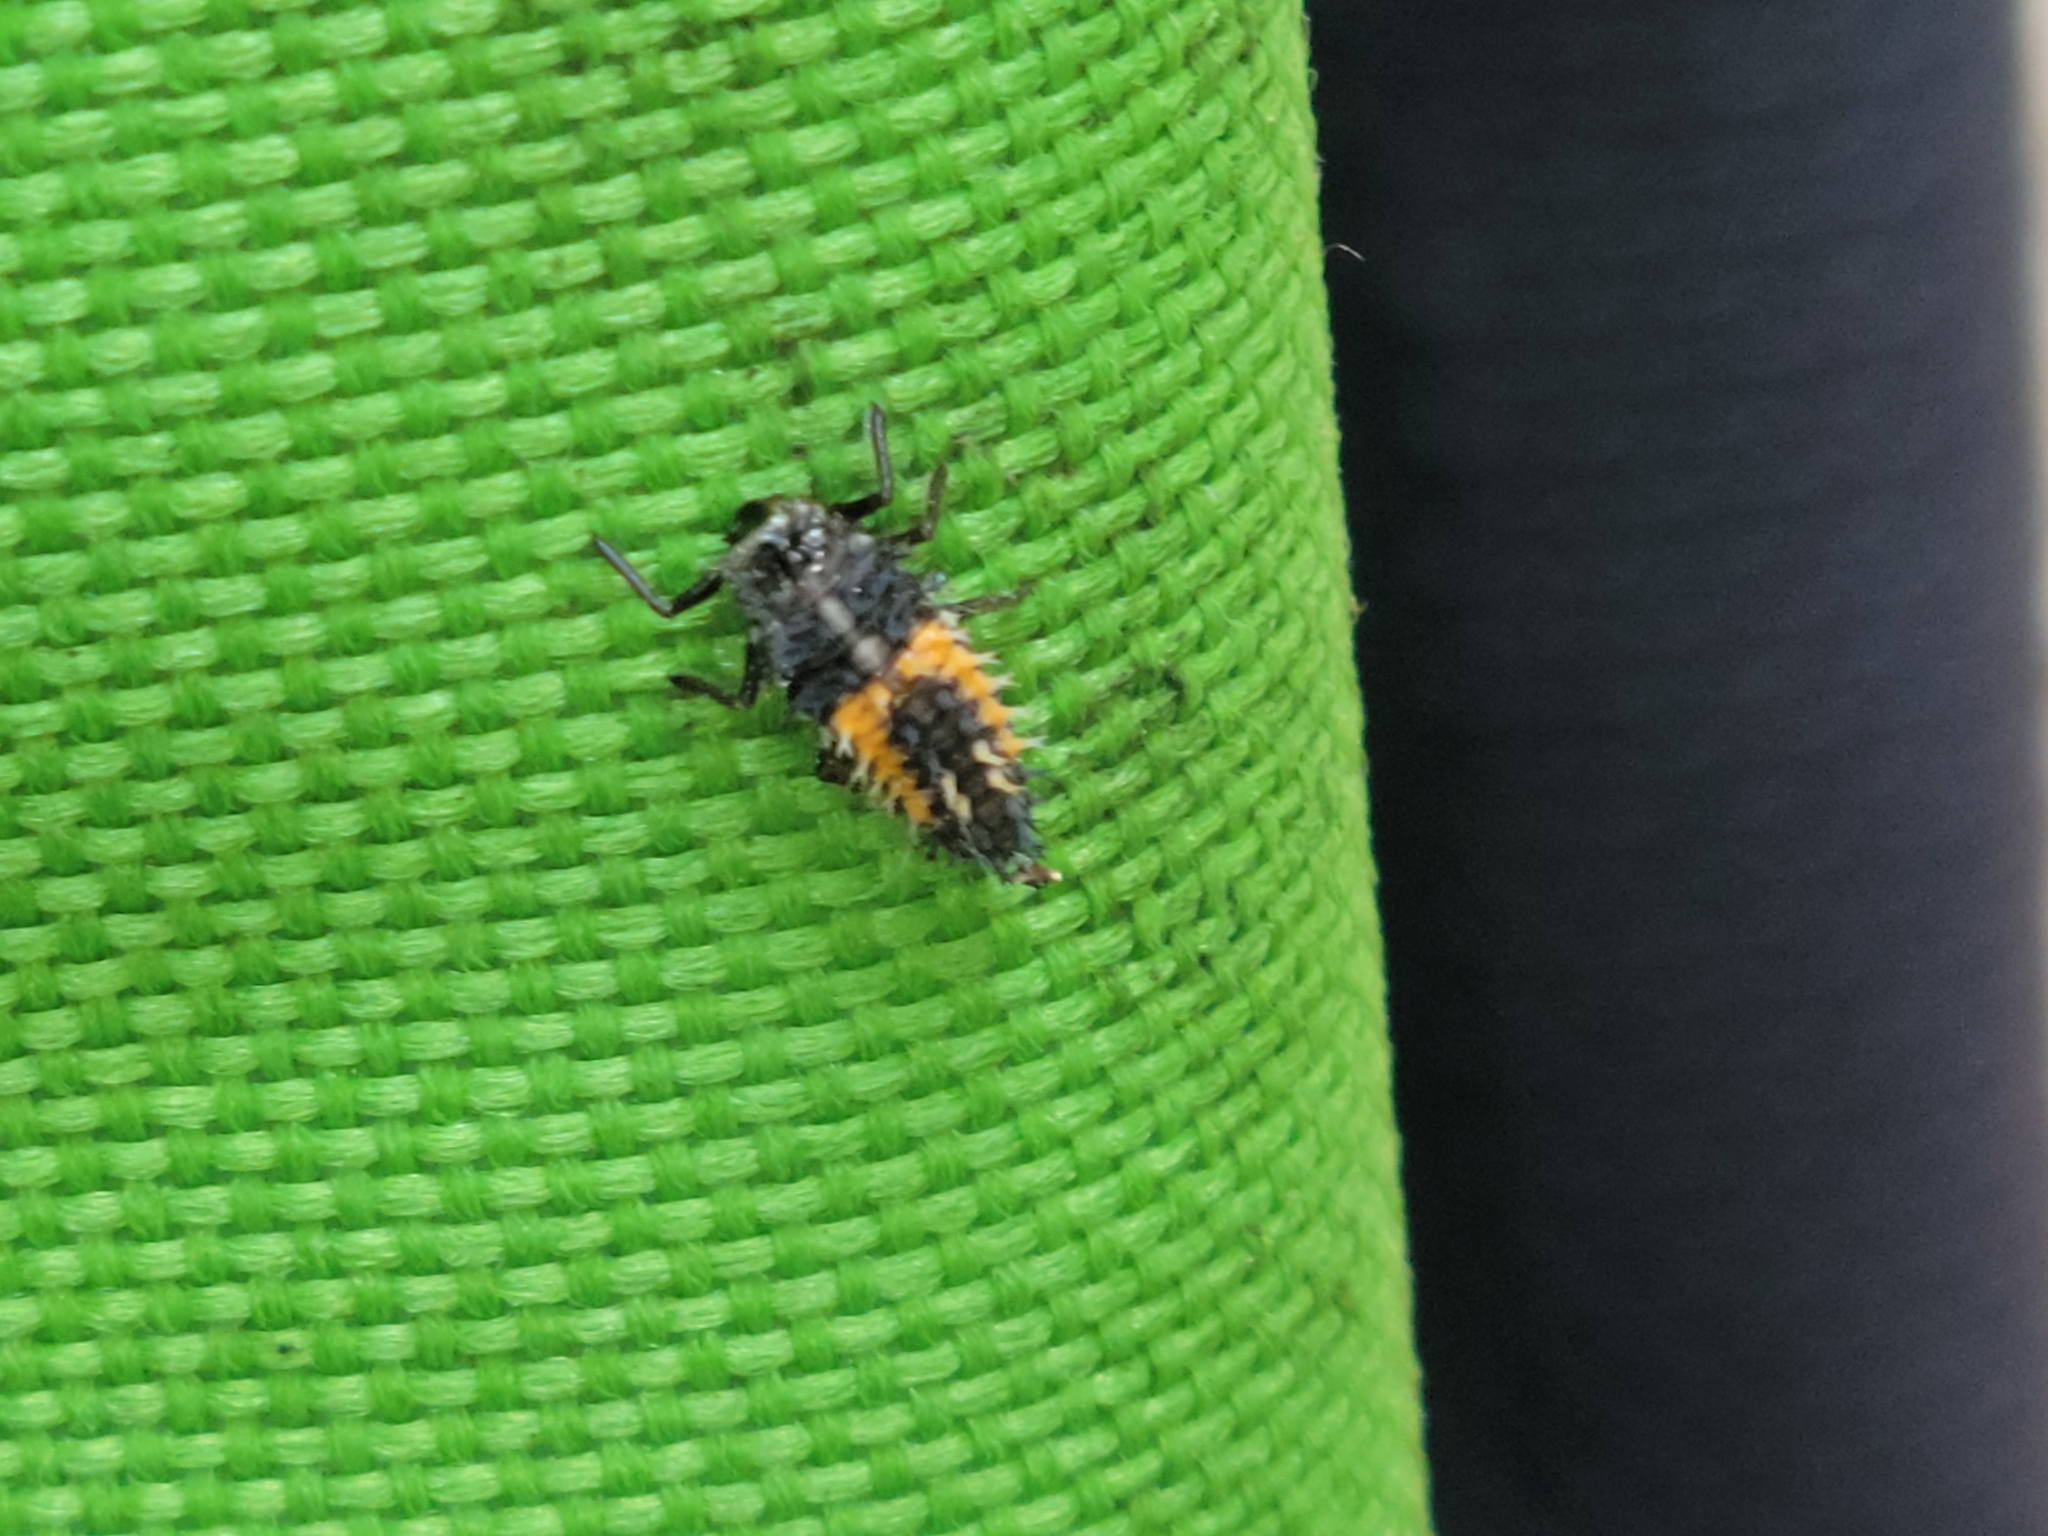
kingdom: Animalia
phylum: Arthropoda
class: Insecta
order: Coleoptera
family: Coccinellidae
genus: Harmonia
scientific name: Harmonia axyridis
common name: Harlequin ladybird
